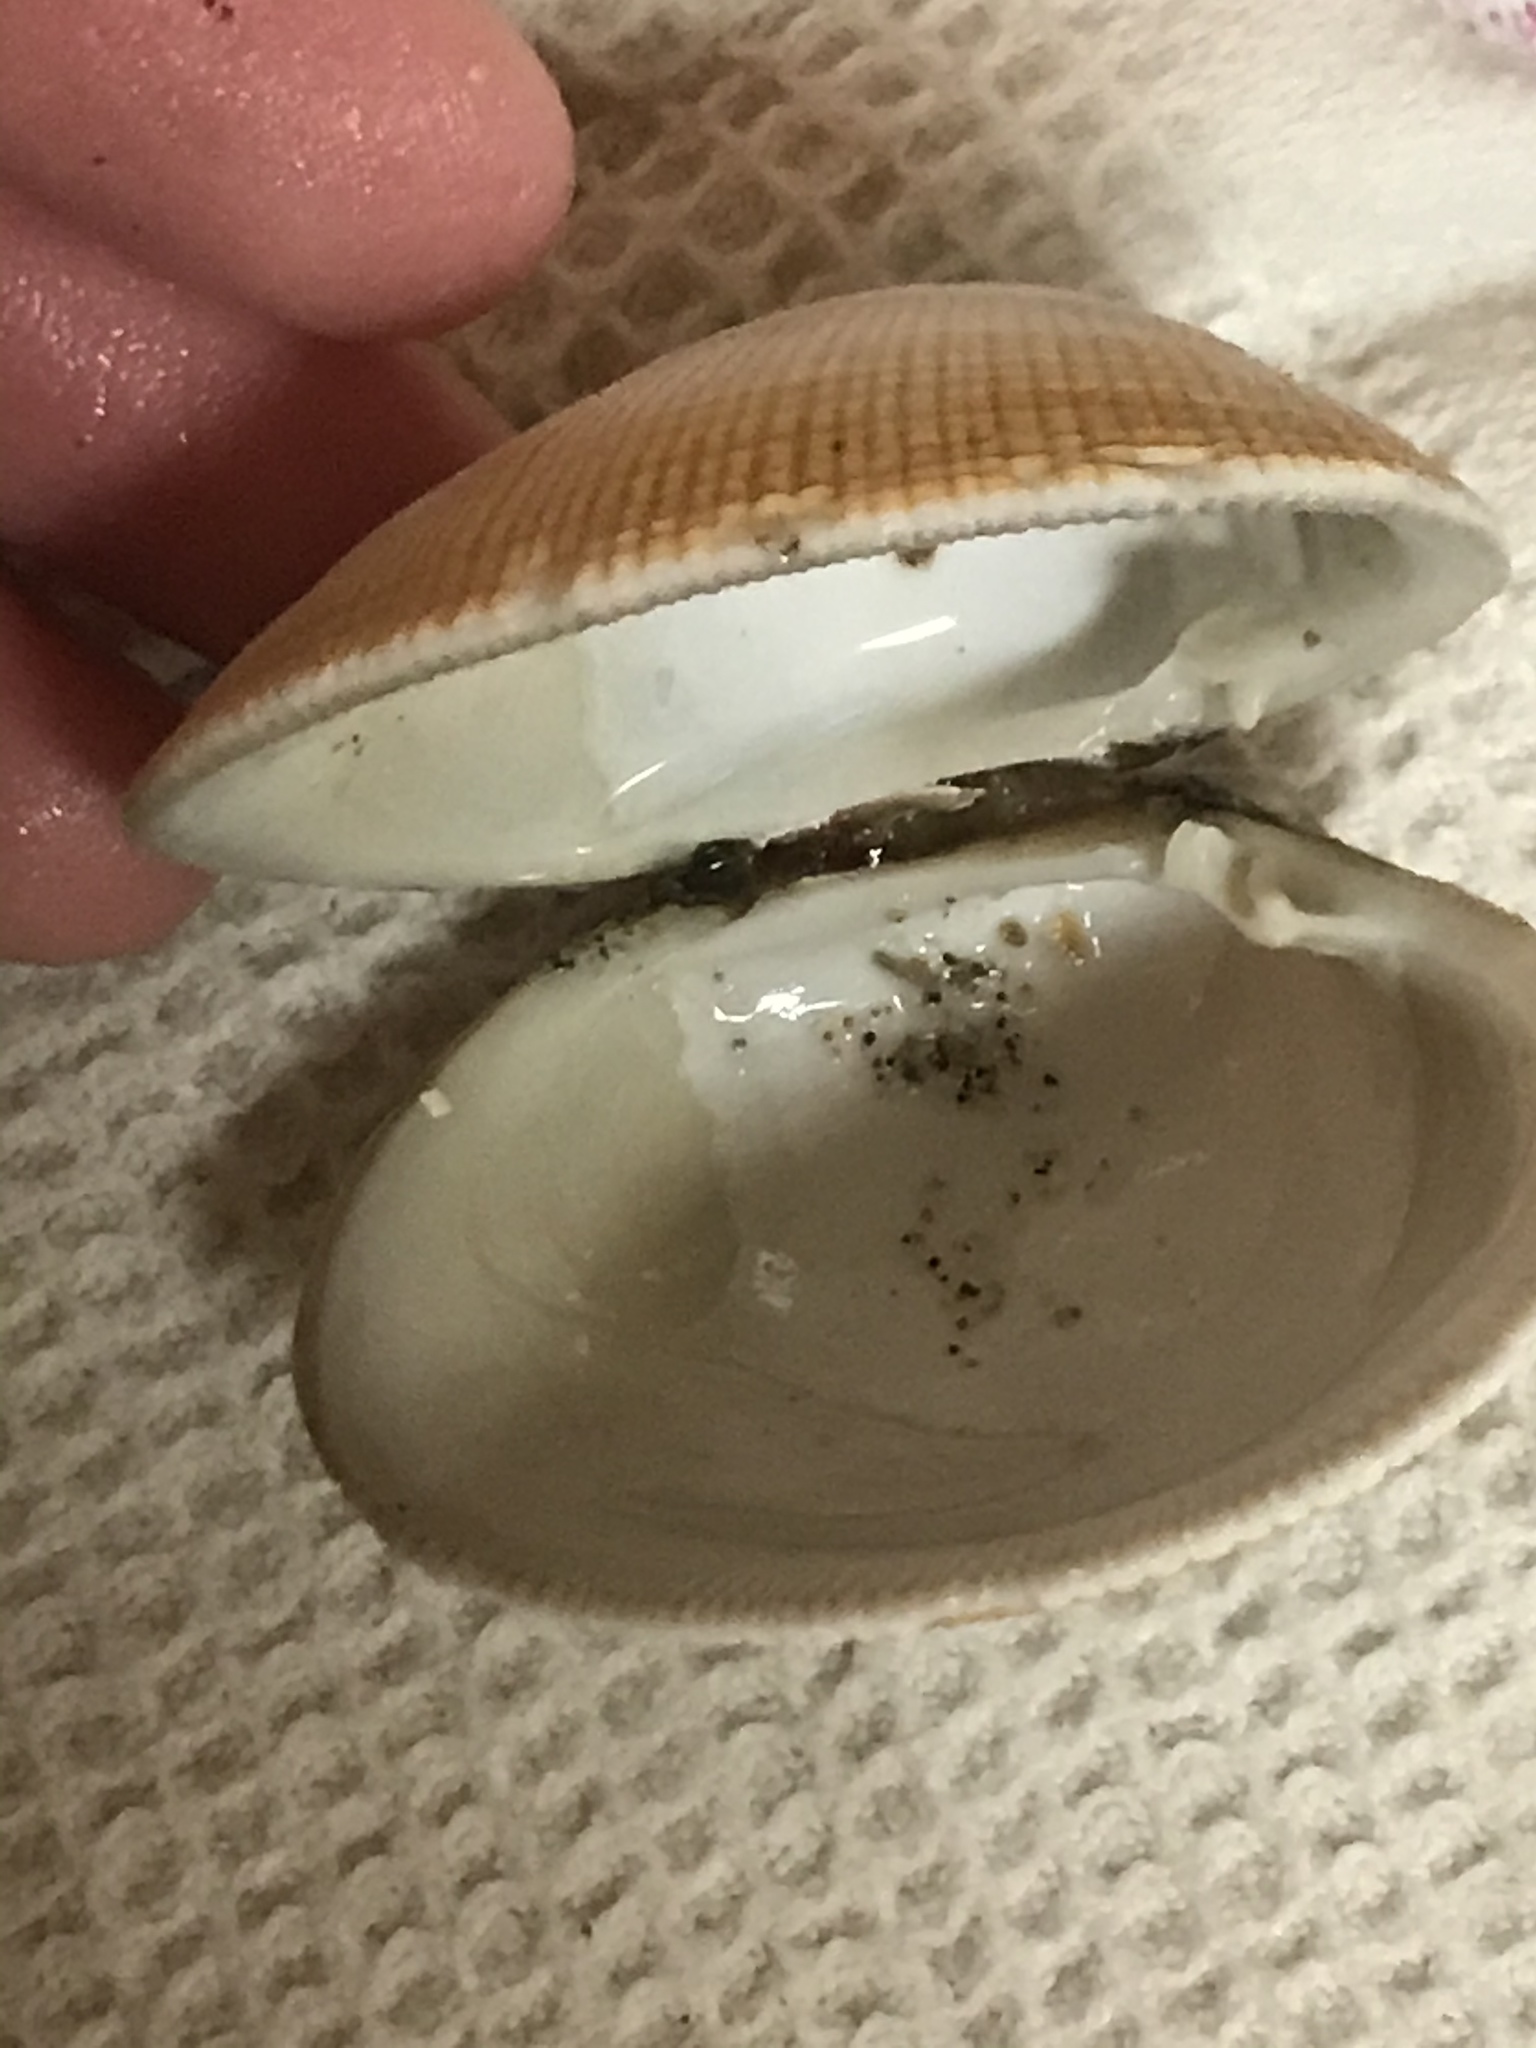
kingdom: Animalia
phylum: Mollusca
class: Bivalvia
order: Venerida
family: Veneridae
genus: Leukoma
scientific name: Leukoma staminea
